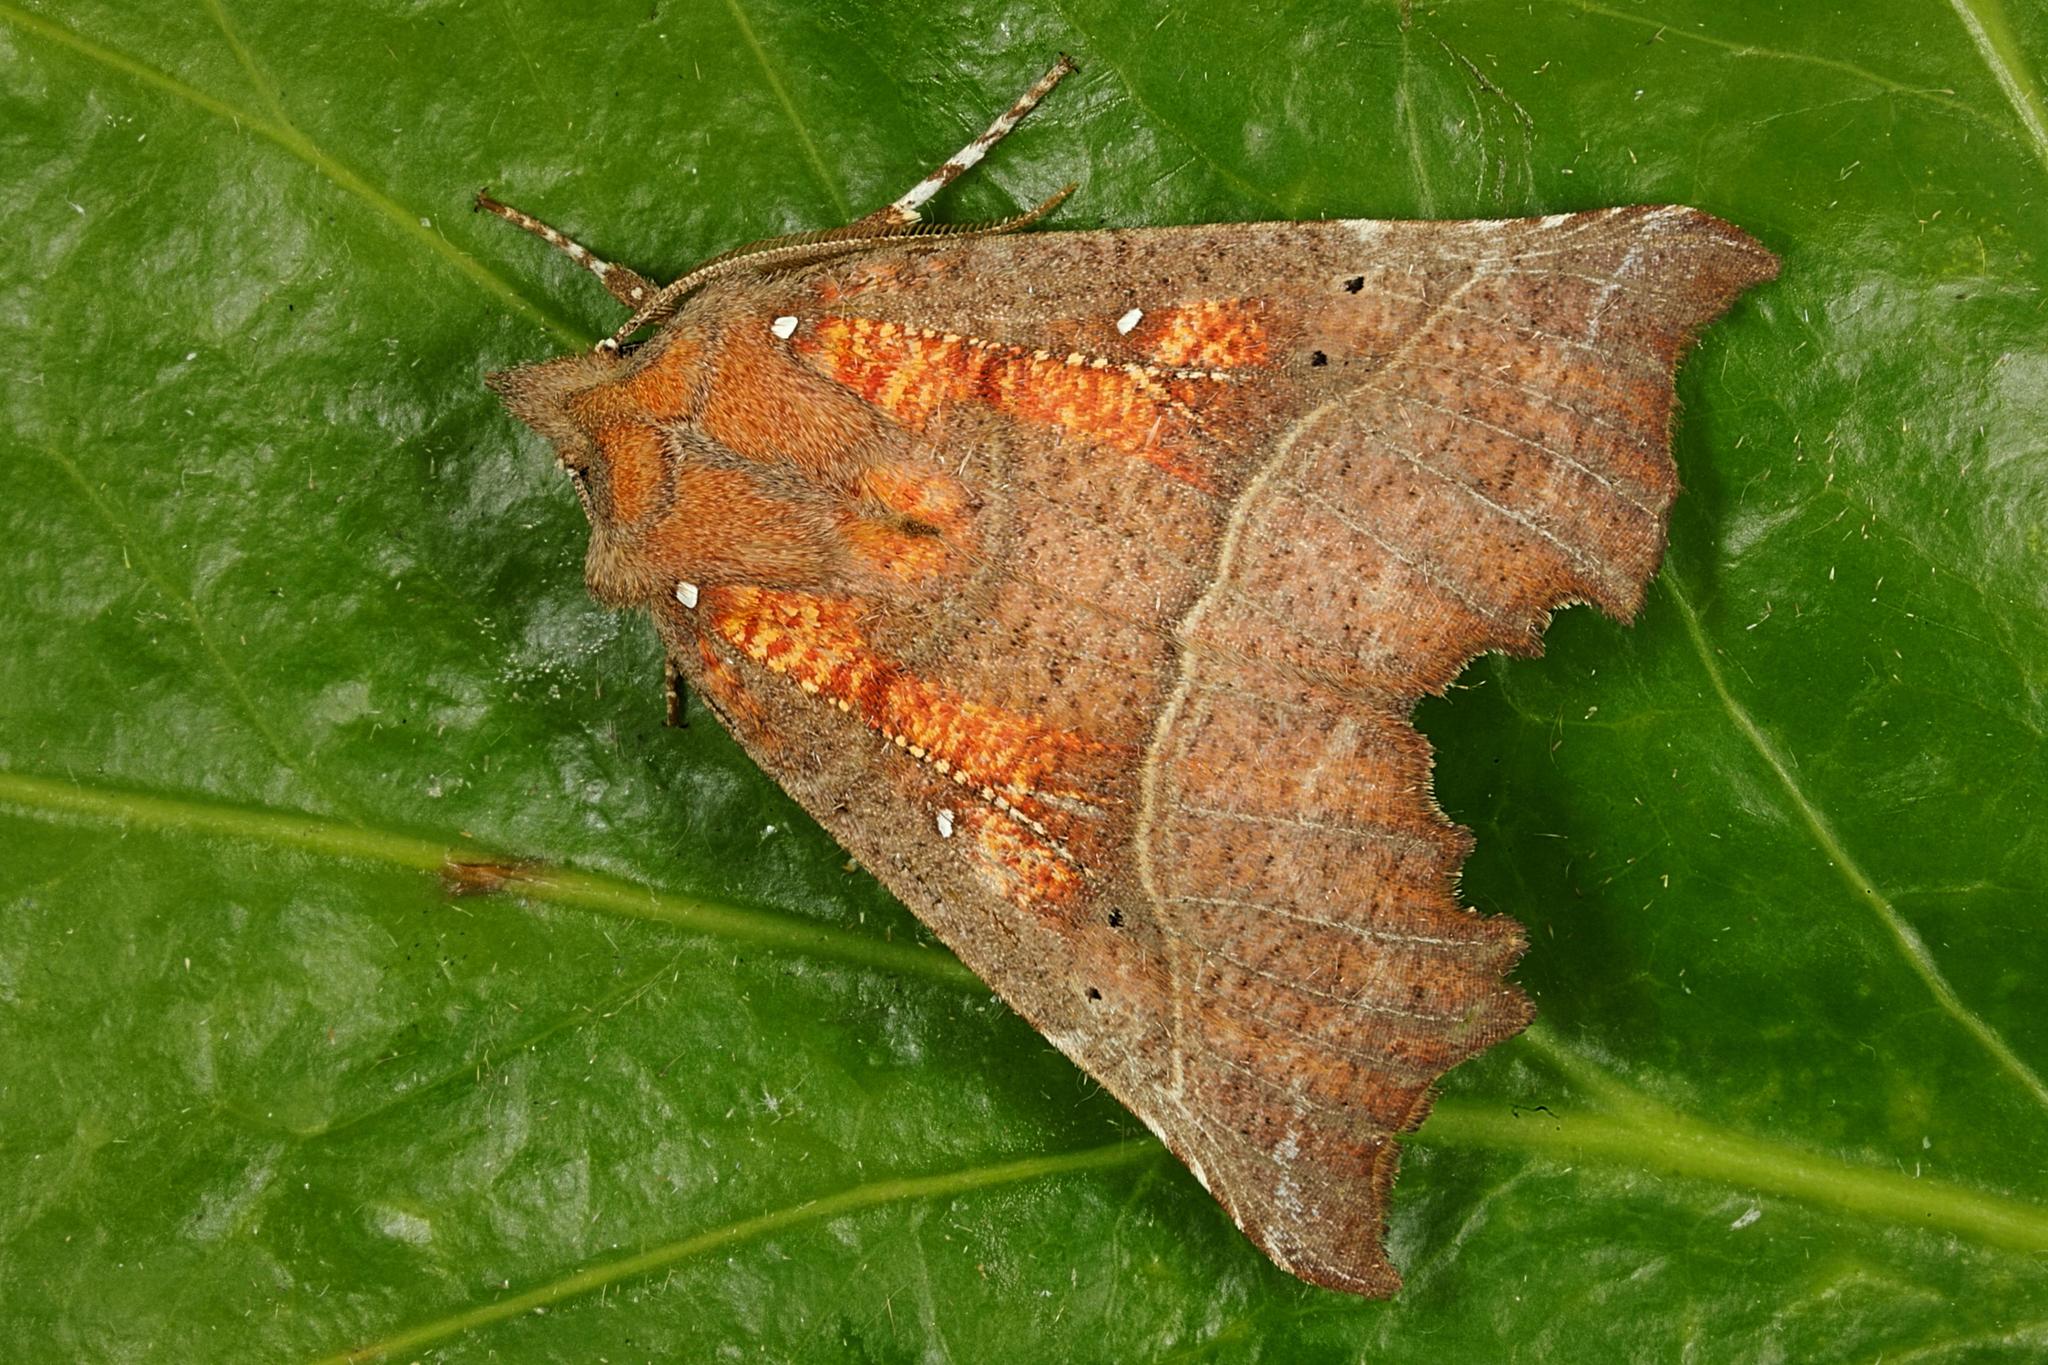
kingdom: Animalia
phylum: Arthropoda
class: Insecta
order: Lepidoptera
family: Erebidae
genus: Scoliopteryx
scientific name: Scoliopteryx libatrix
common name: Herald
